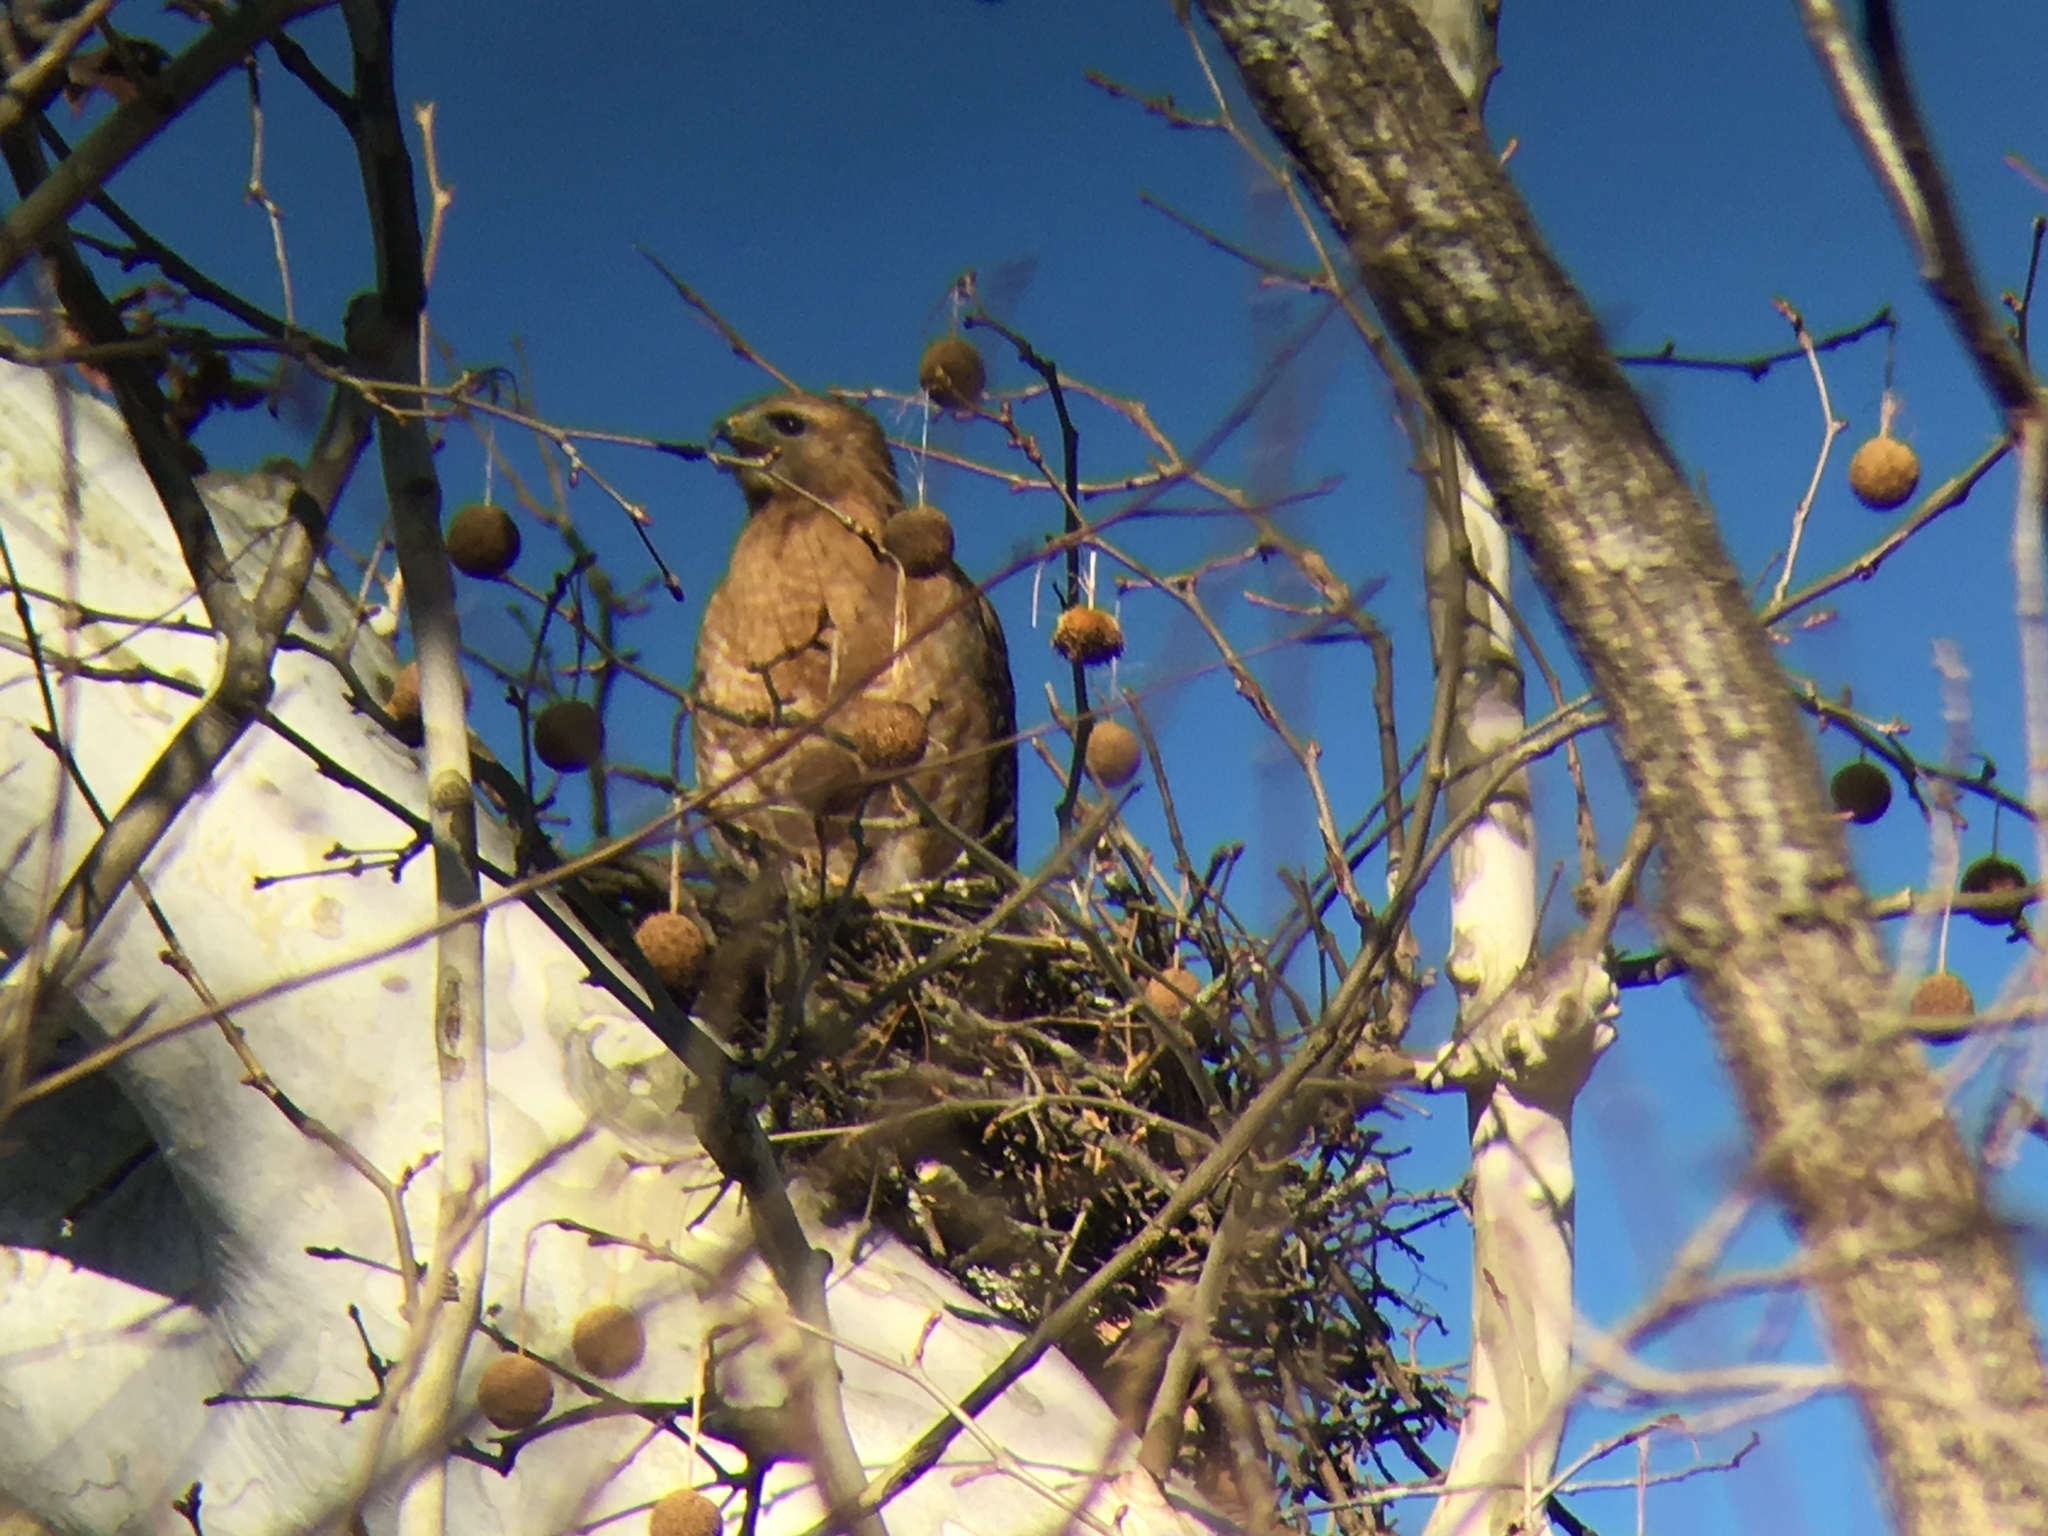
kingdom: Animalia
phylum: Chordata
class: Aves
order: Accipitriformes
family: Accipitridae
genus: Buteo
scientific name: Buteo lineatus
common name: Red-shouldered hawk
